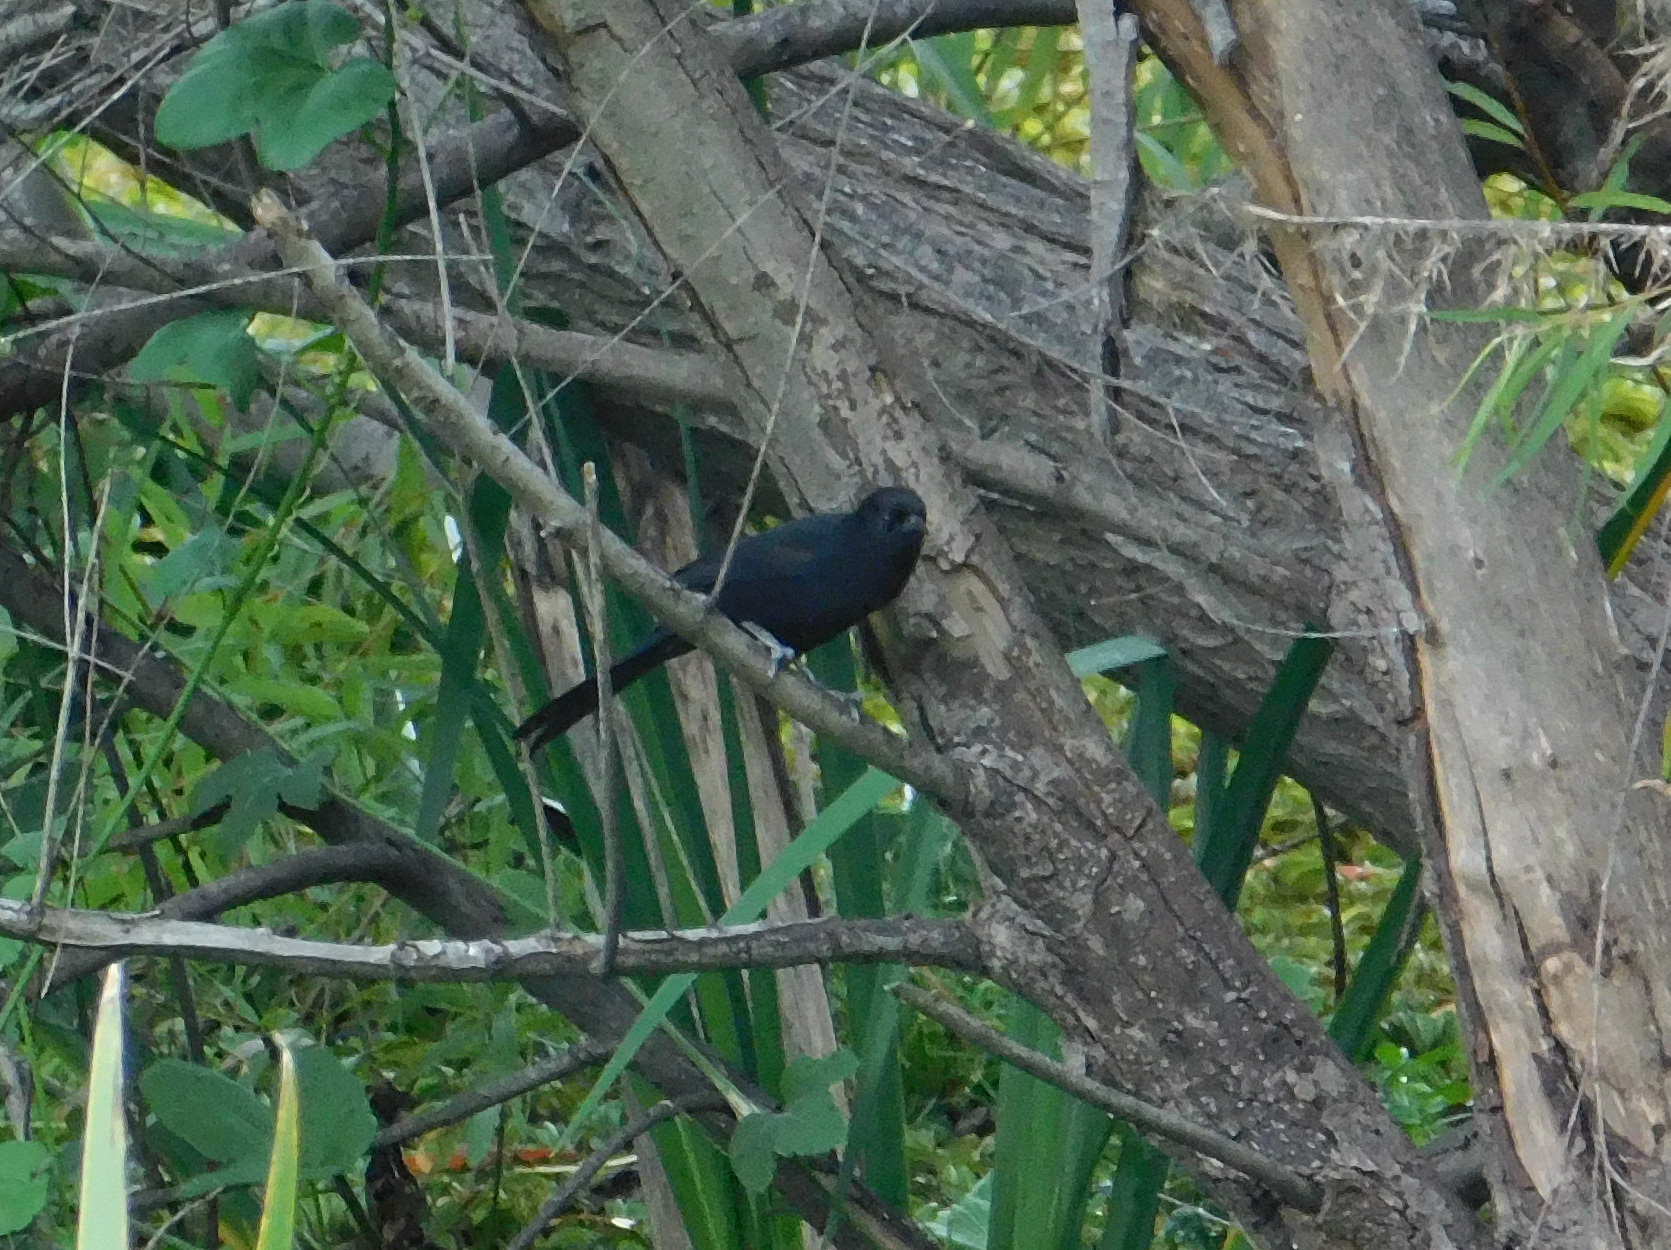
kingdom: Animalia
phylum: Chordata
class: Aves
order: Passeriformes
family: Icteridae
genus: Icterus
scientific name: Icterus cayanensis
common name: Epaulet oriole
